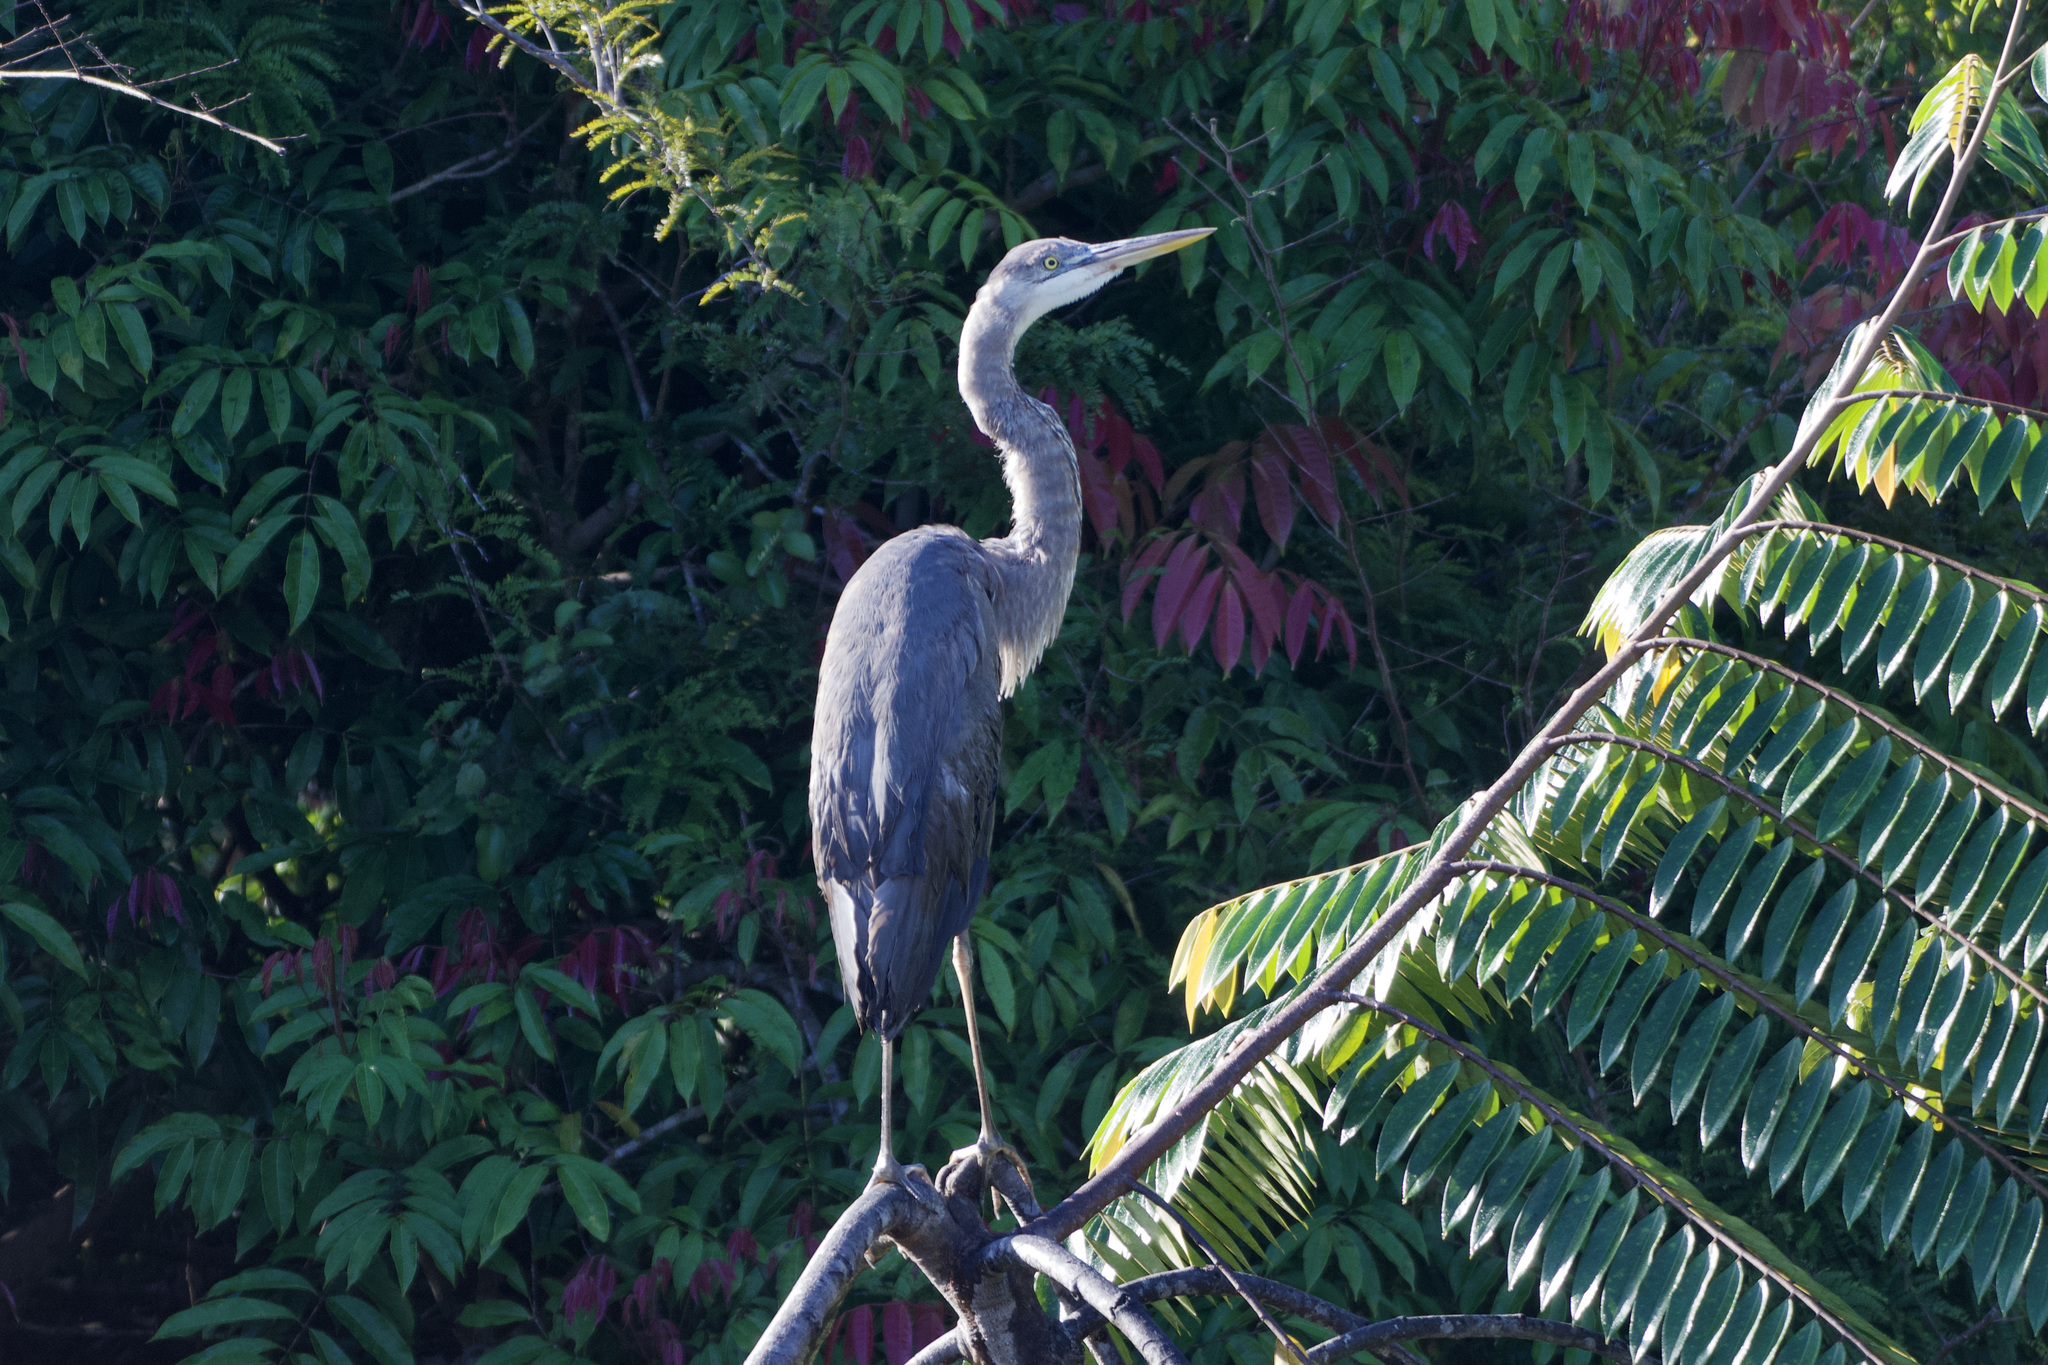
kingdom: Animalia
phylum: Chordata
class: Aves
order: Pelecaniformes
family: Ardeidae
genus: Ardea
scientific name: Ardea herodias
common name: Great blue heron
